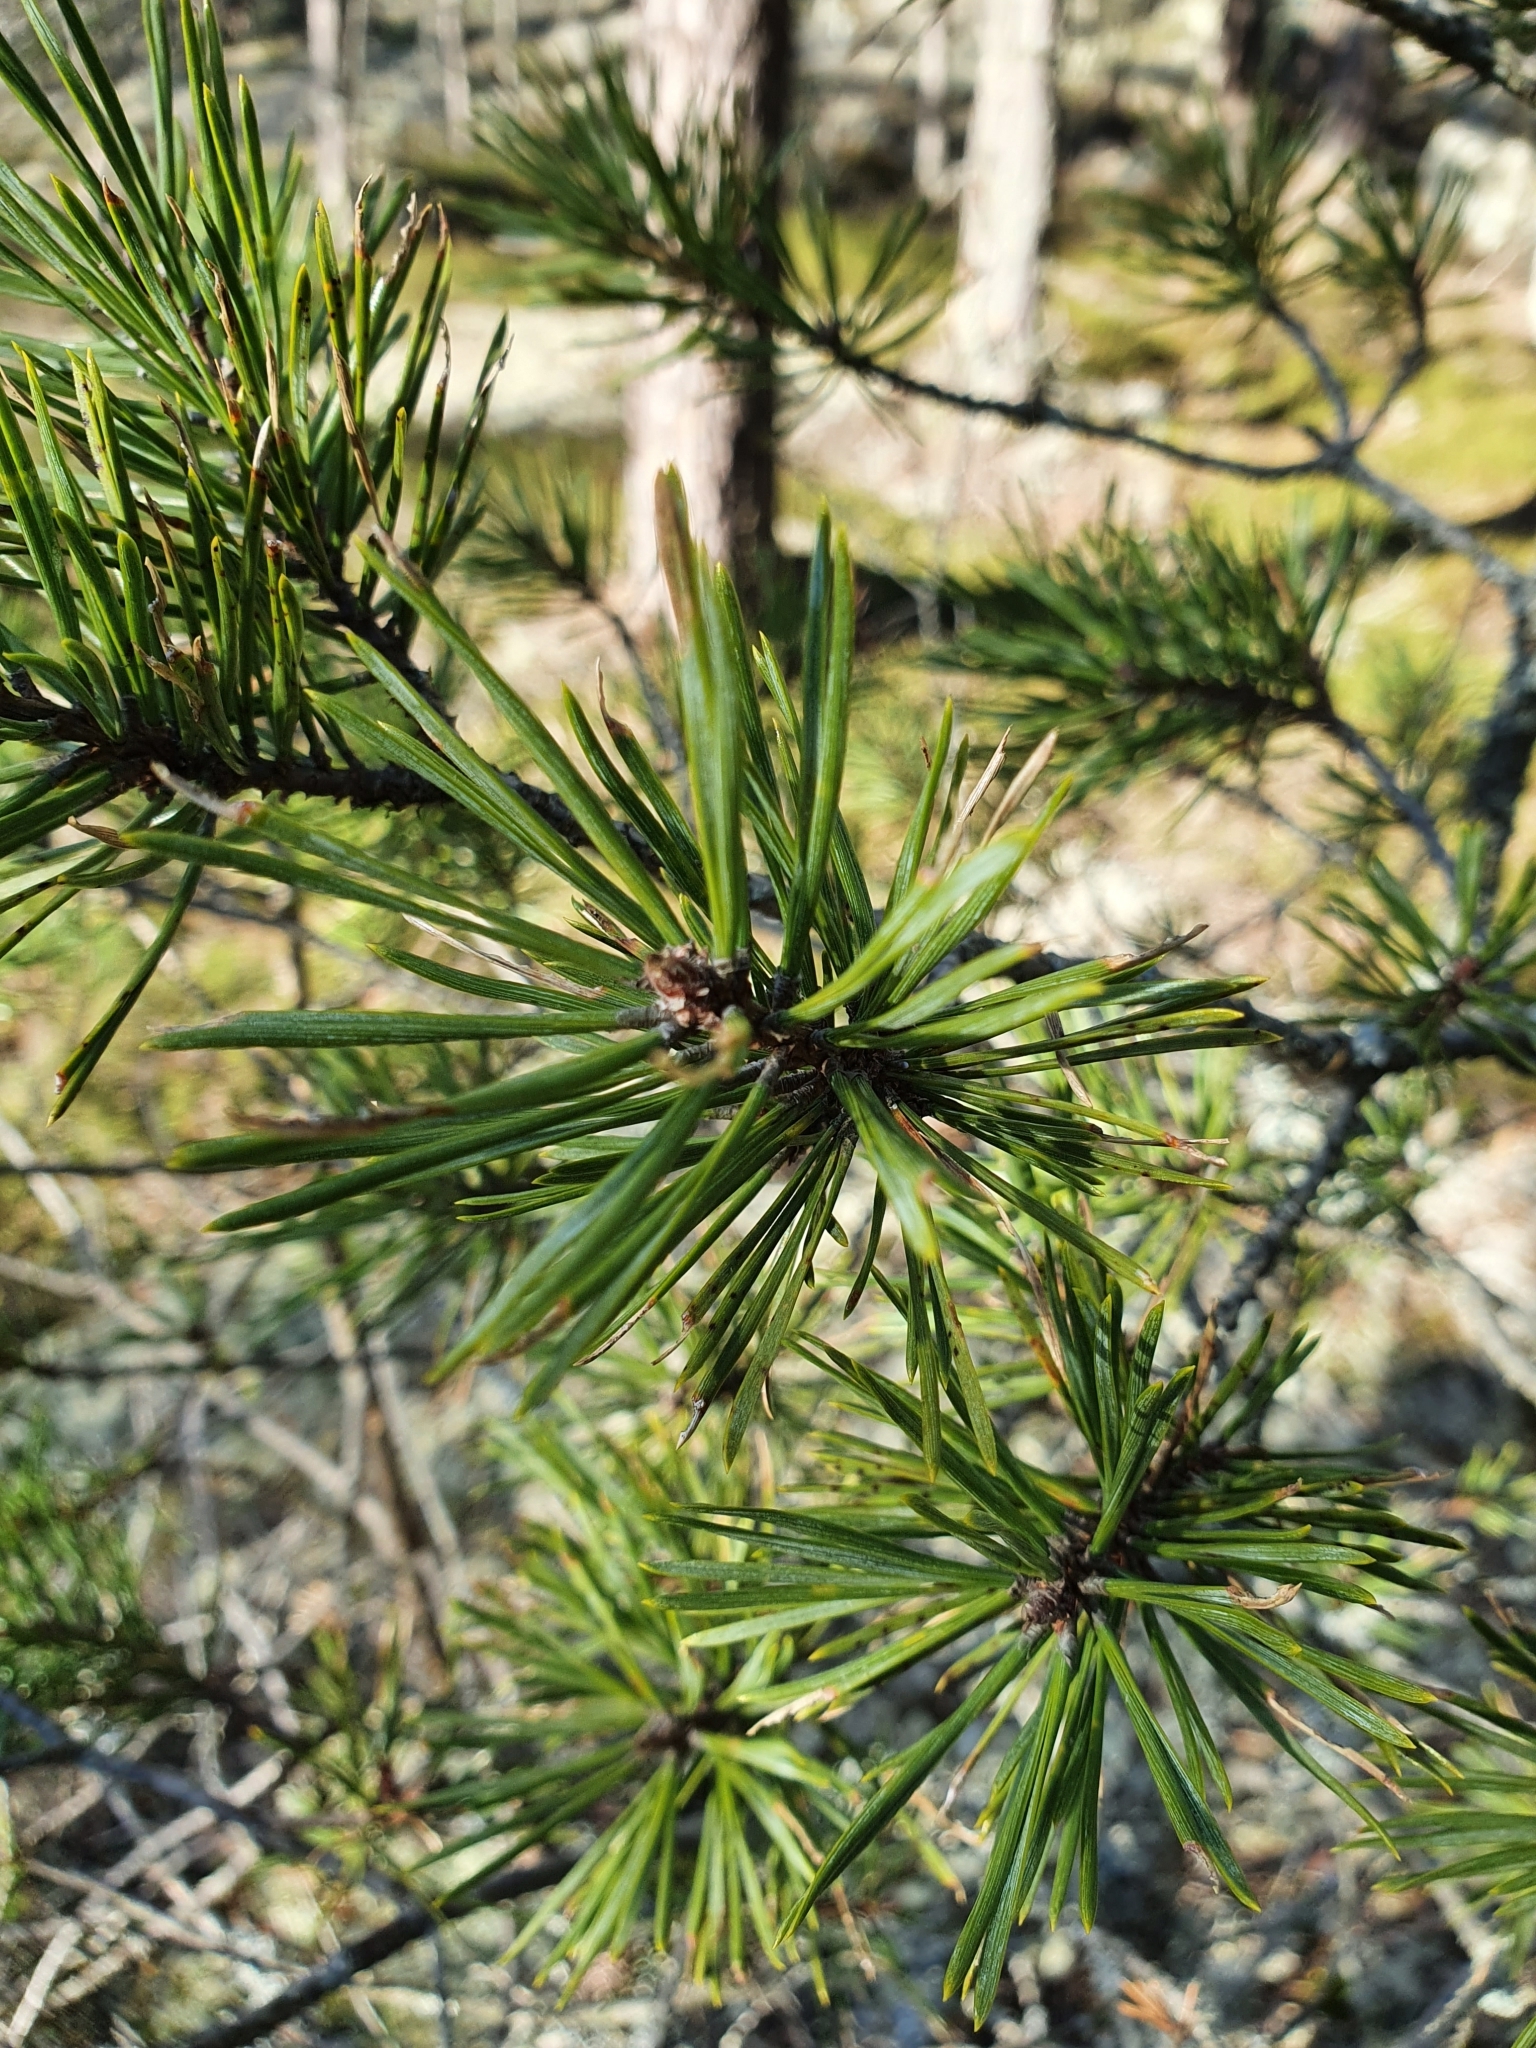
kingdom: Plantae
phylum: Tracheophyta
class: Pinopsida
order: Pinales
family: Pinaceae
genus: Pinus
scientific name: Pinus sylvestris
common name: Scots pine
